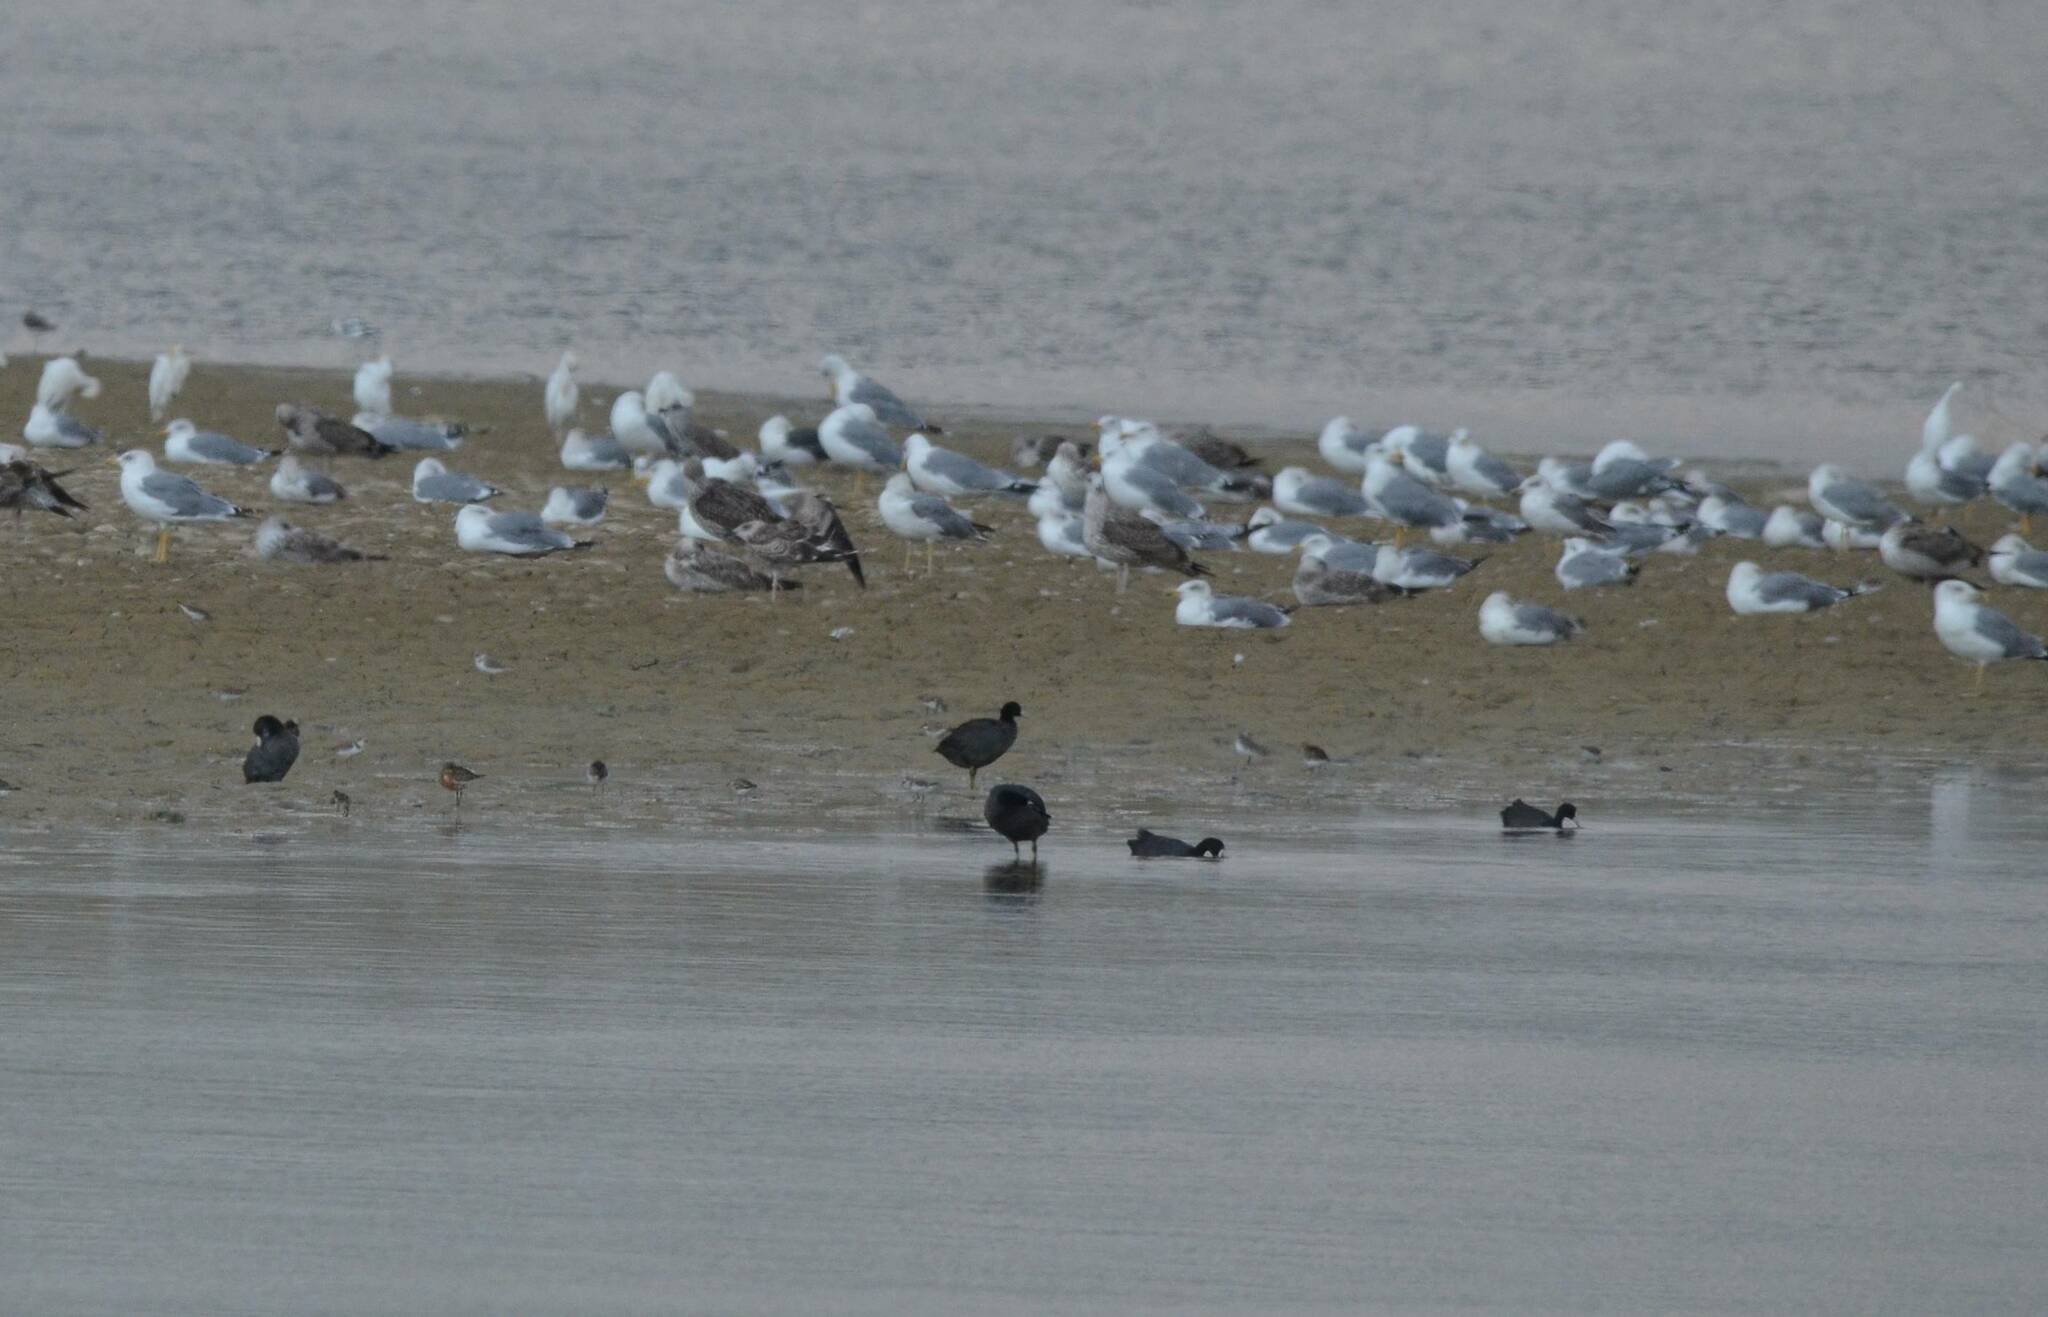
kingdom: Animalia
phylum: Chordata
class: Aves
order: Charadriiformes
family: Laridae
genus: Larus
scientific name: Larus michahellis
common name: Yellow-legged gull
